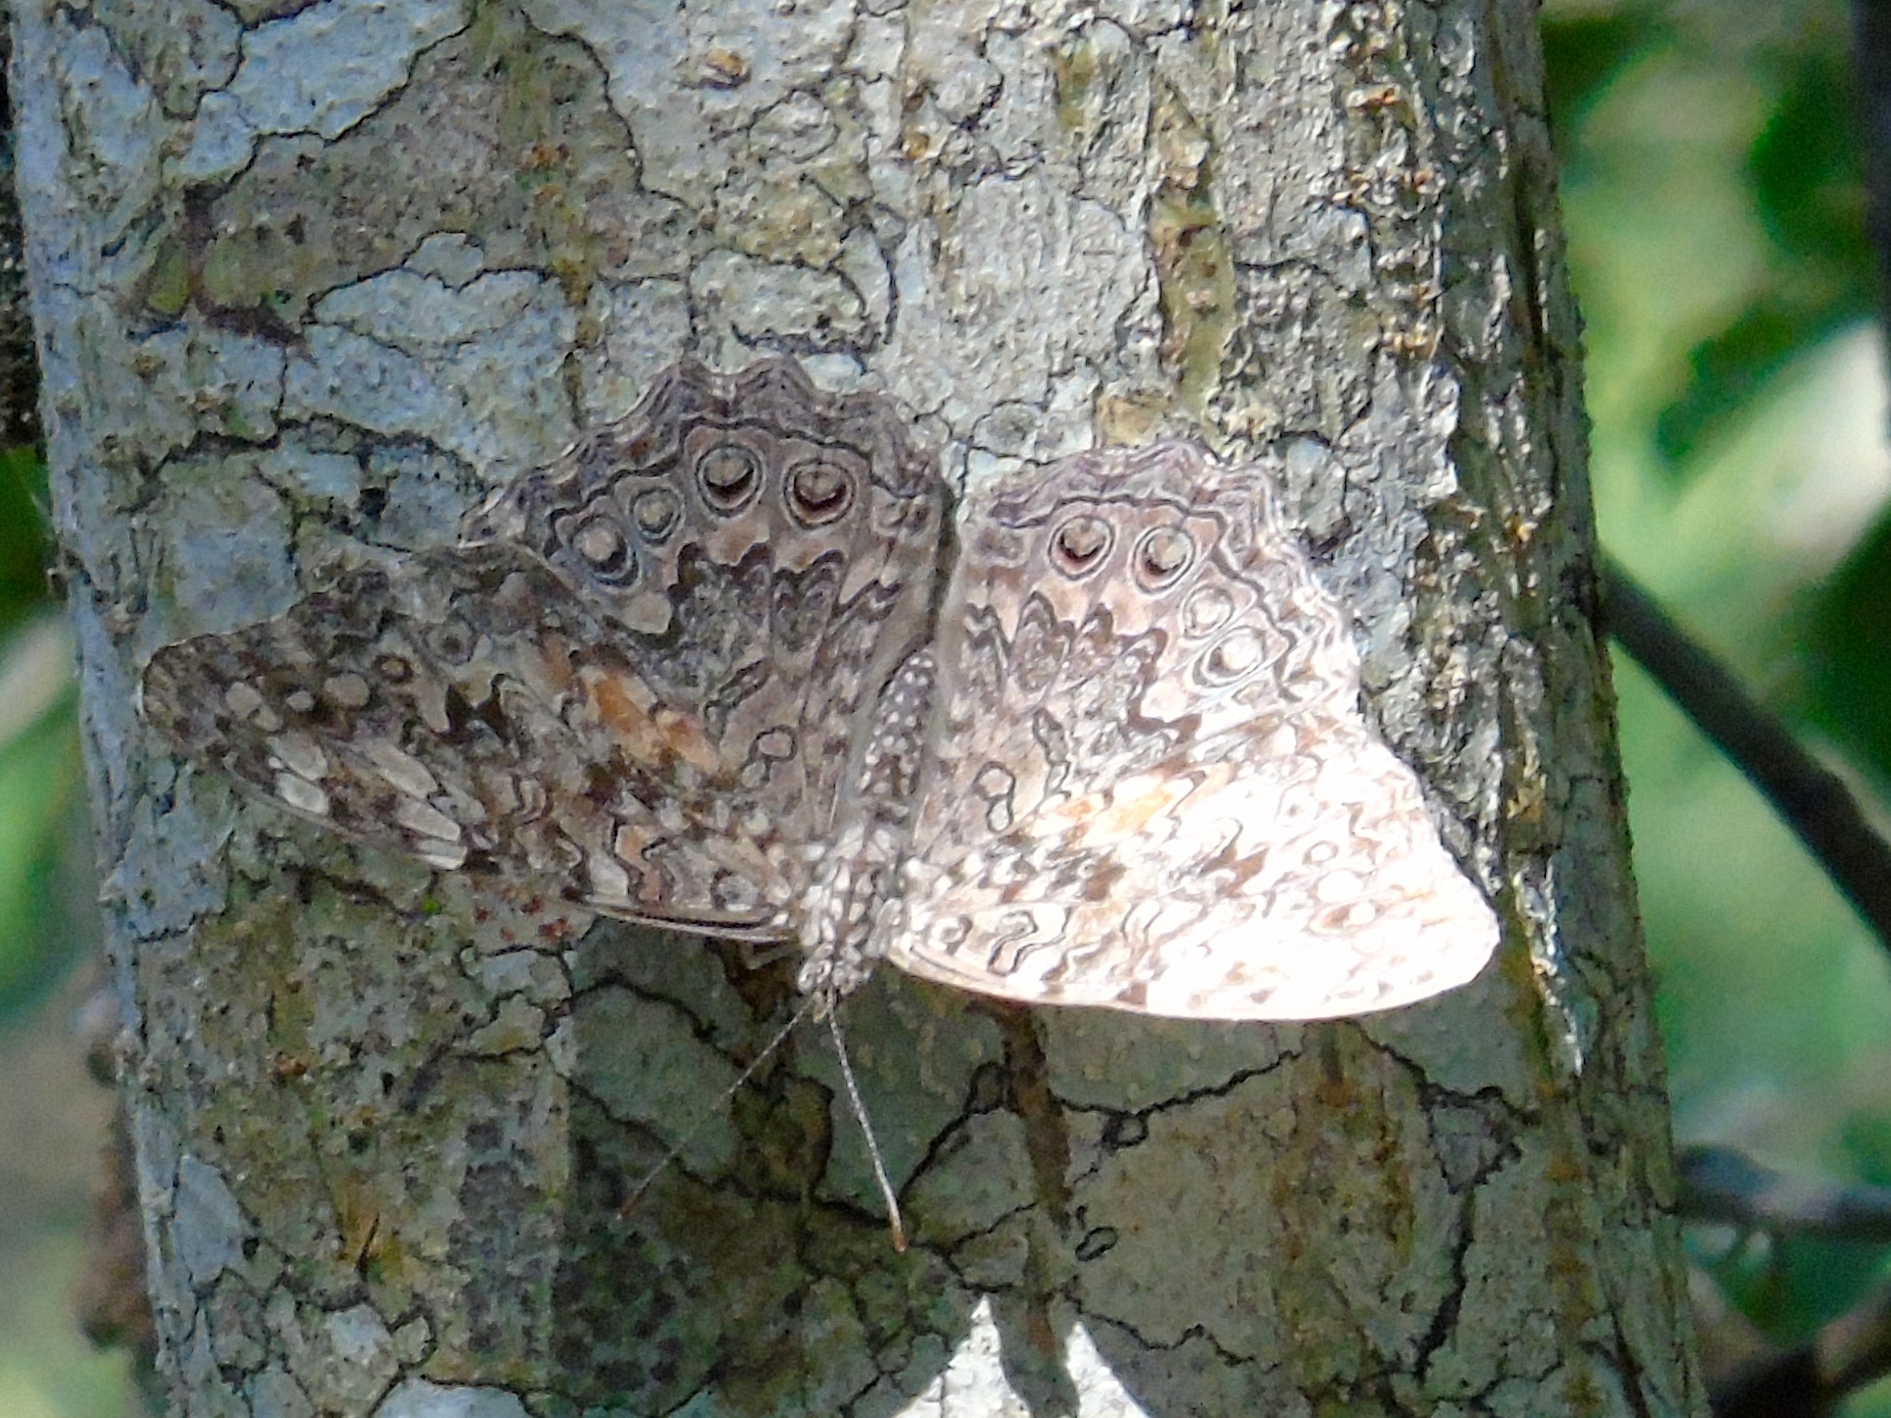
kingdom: Animalia
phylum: Arthropoda
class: Insecta
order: Lepidoptera
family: Nymphalidae
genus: Hamadryas
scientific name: Hamadryas februa
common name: Gray cracker
